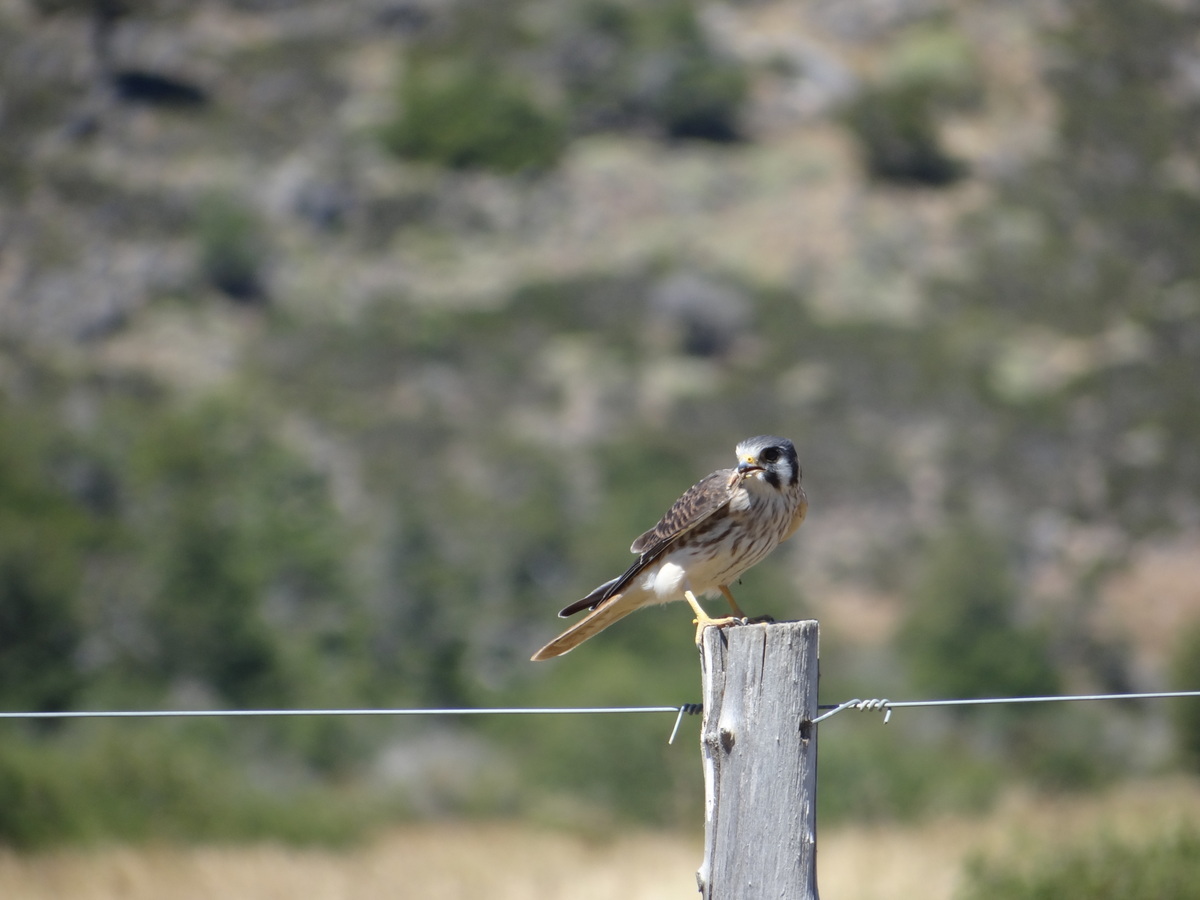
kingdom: Animalia
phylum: Chordata
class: Aves
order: Falconiformes
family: Falconidae
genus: Falco
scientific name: Falco sparverius
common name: American kestrel
